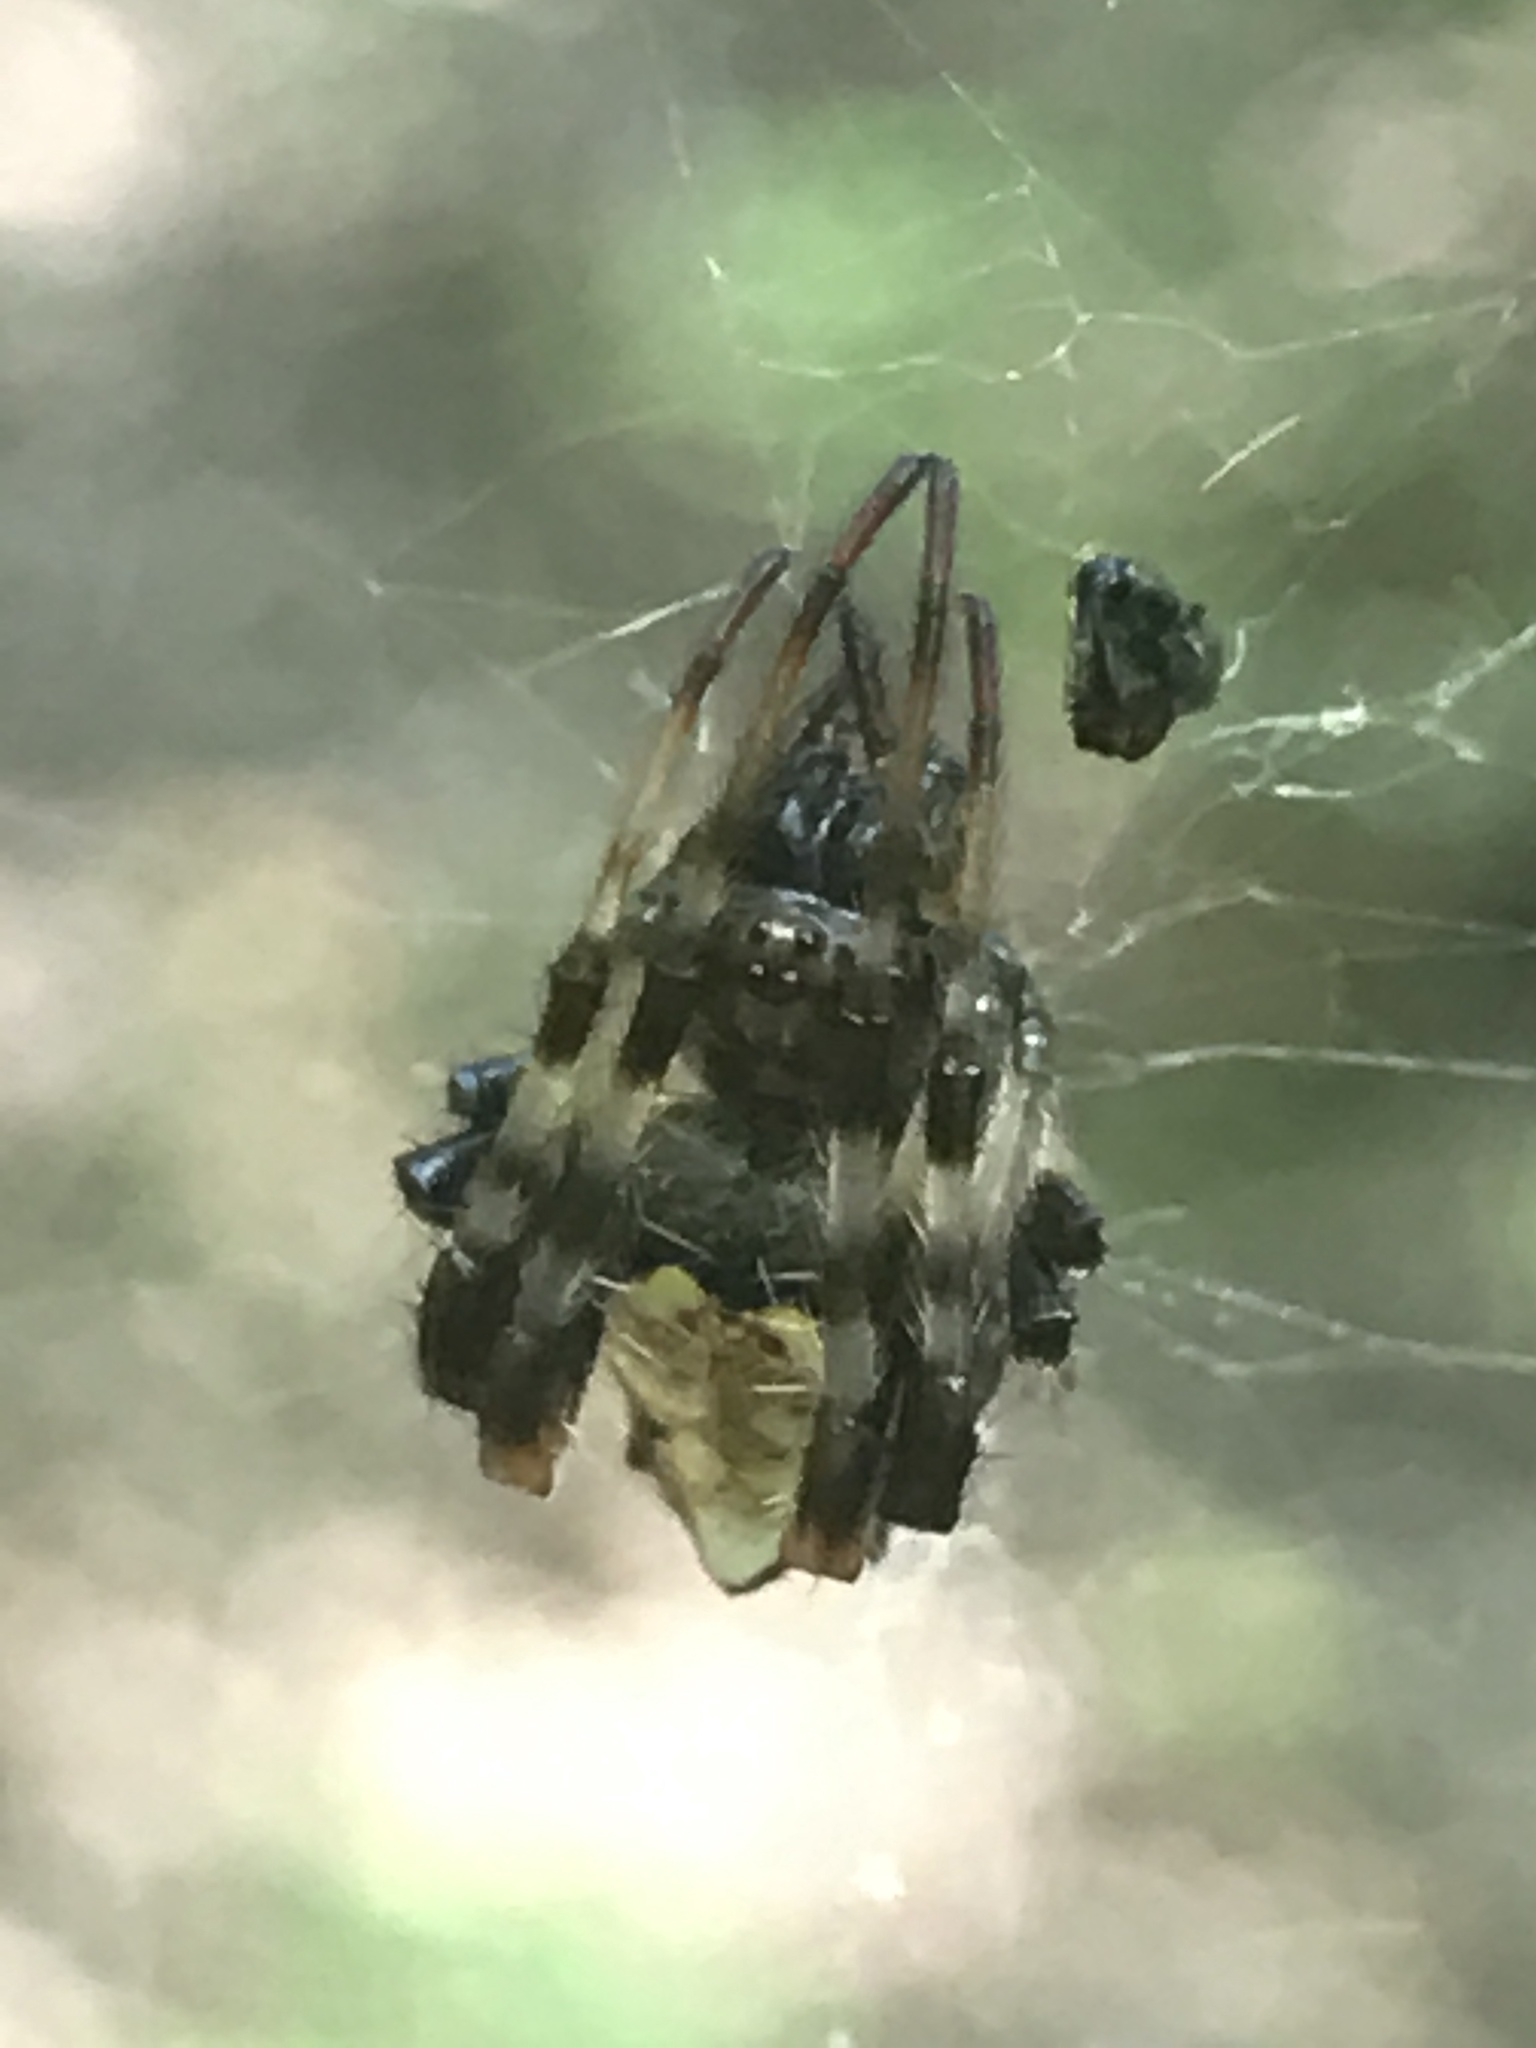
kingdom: Animalia
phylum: Arthropoda
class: Arachnida
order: Araneae
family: Araneidae
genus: Verrucosa
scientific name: Verrucosa arenata
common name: Orb weavers
